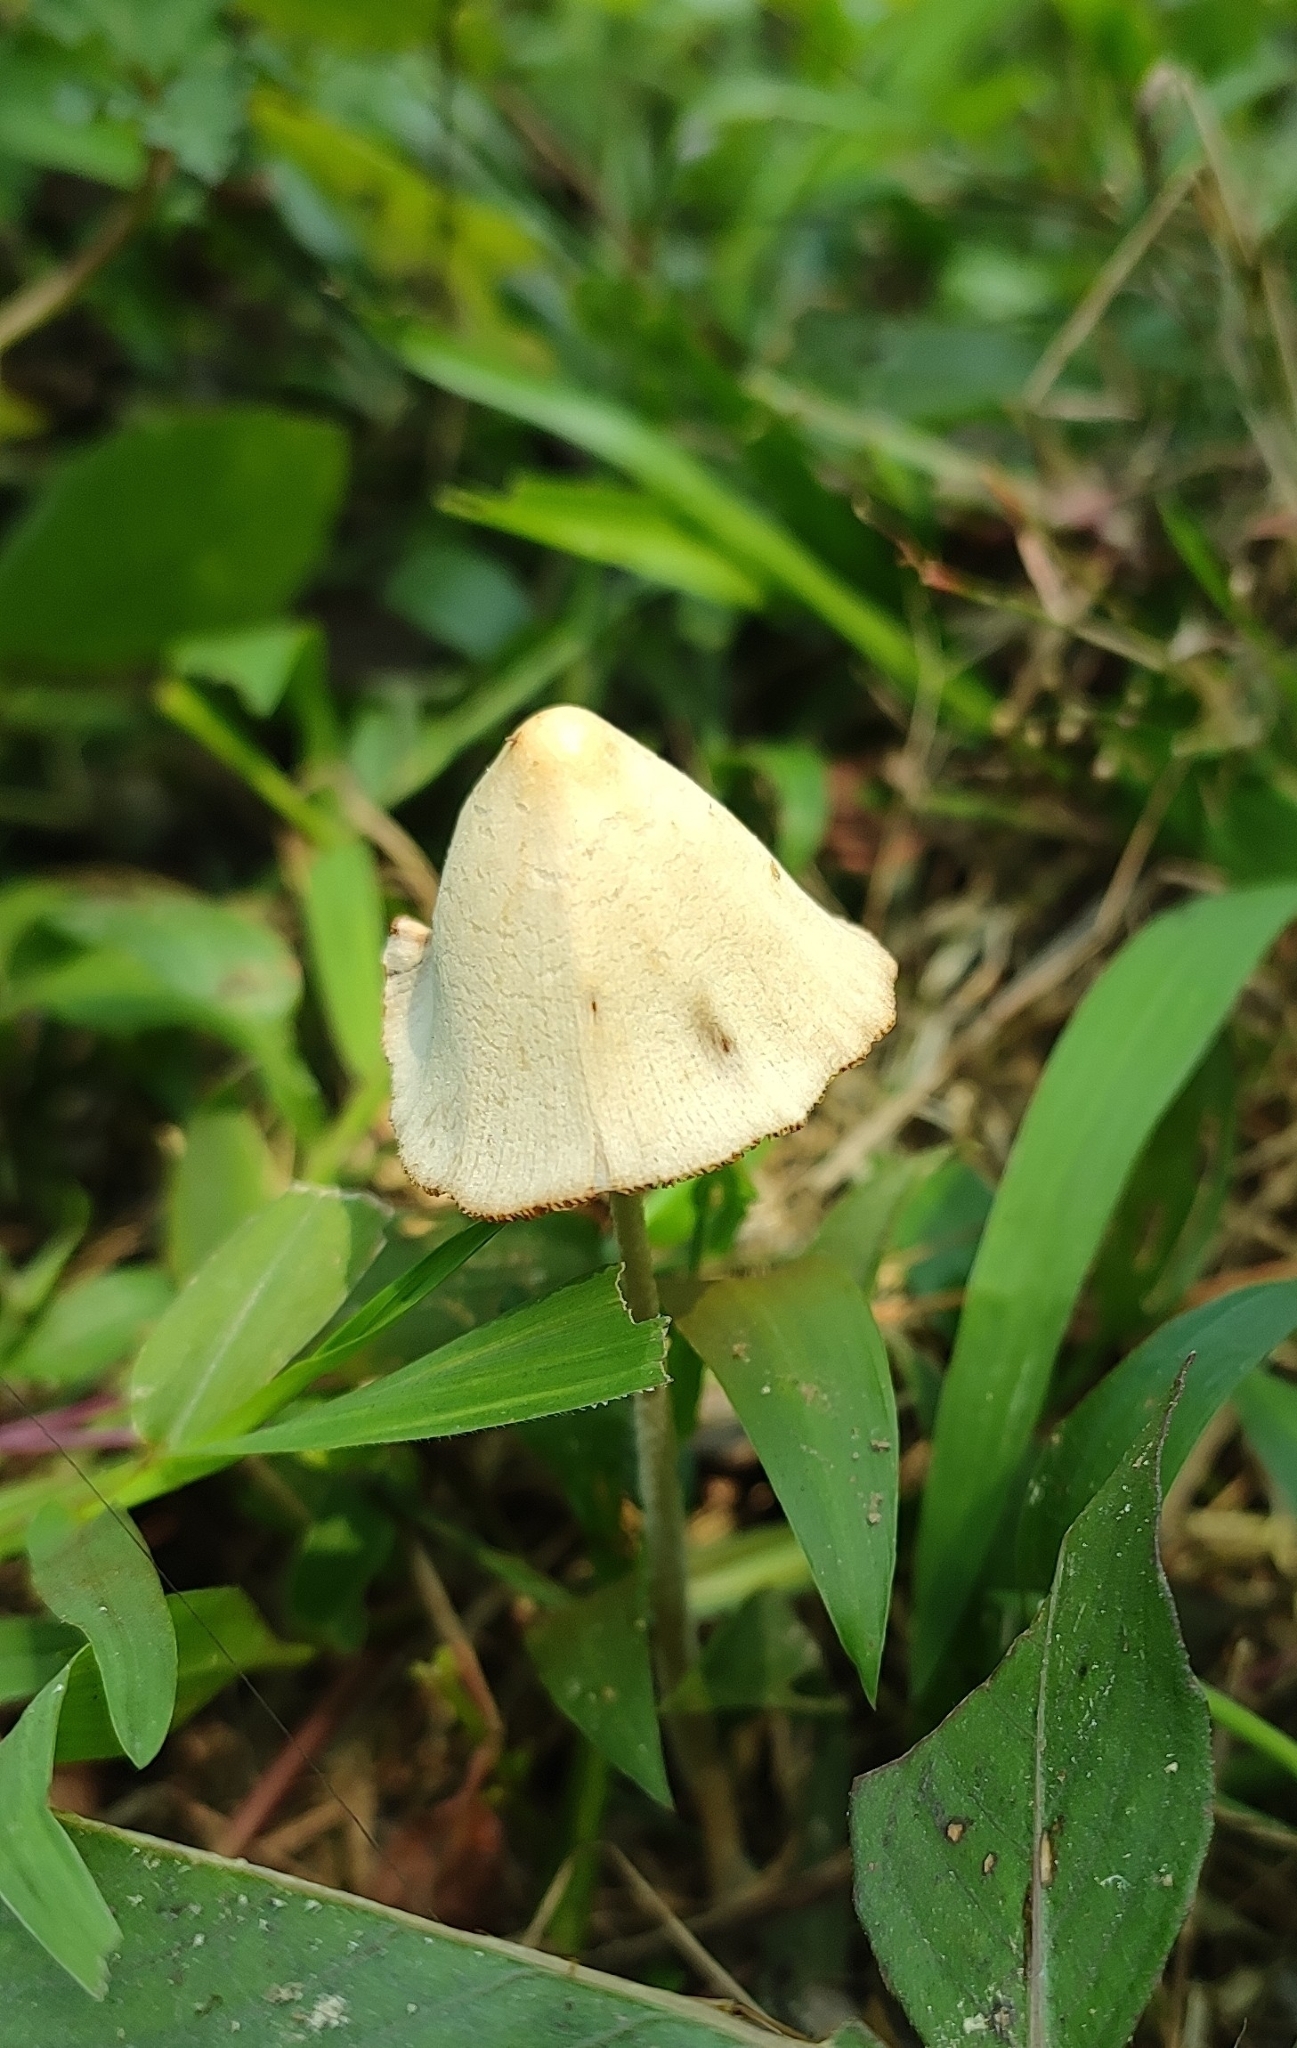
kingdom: Fungi
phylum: Basidiomycota
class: Agaricomycetes
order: Agaricales
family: Bolbitiaceae
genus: Conocybe
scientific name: Conocybe apala
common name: Milky conecap
